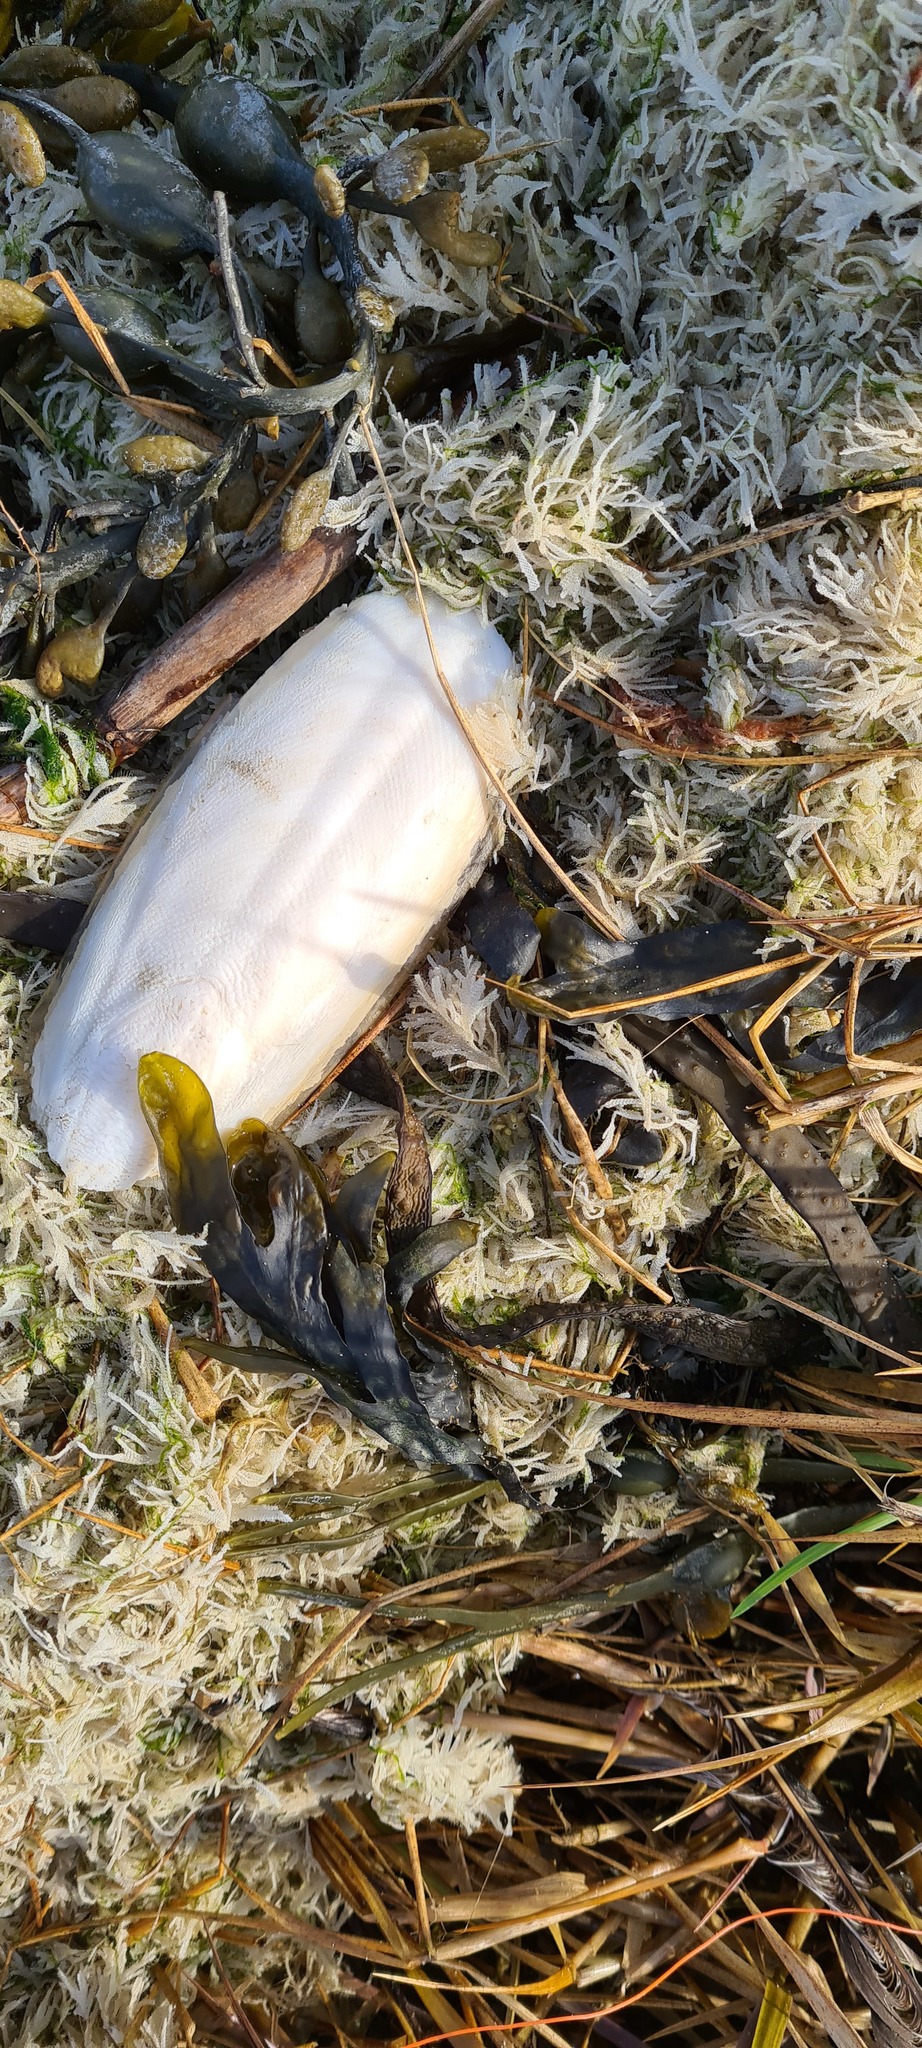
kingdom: Animalia
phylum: Mollusca
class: Cephalopoda
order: Sepiida
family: Sepiidae
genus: Sepia
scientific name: Sepia officinalis
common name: Common cuttlefish
